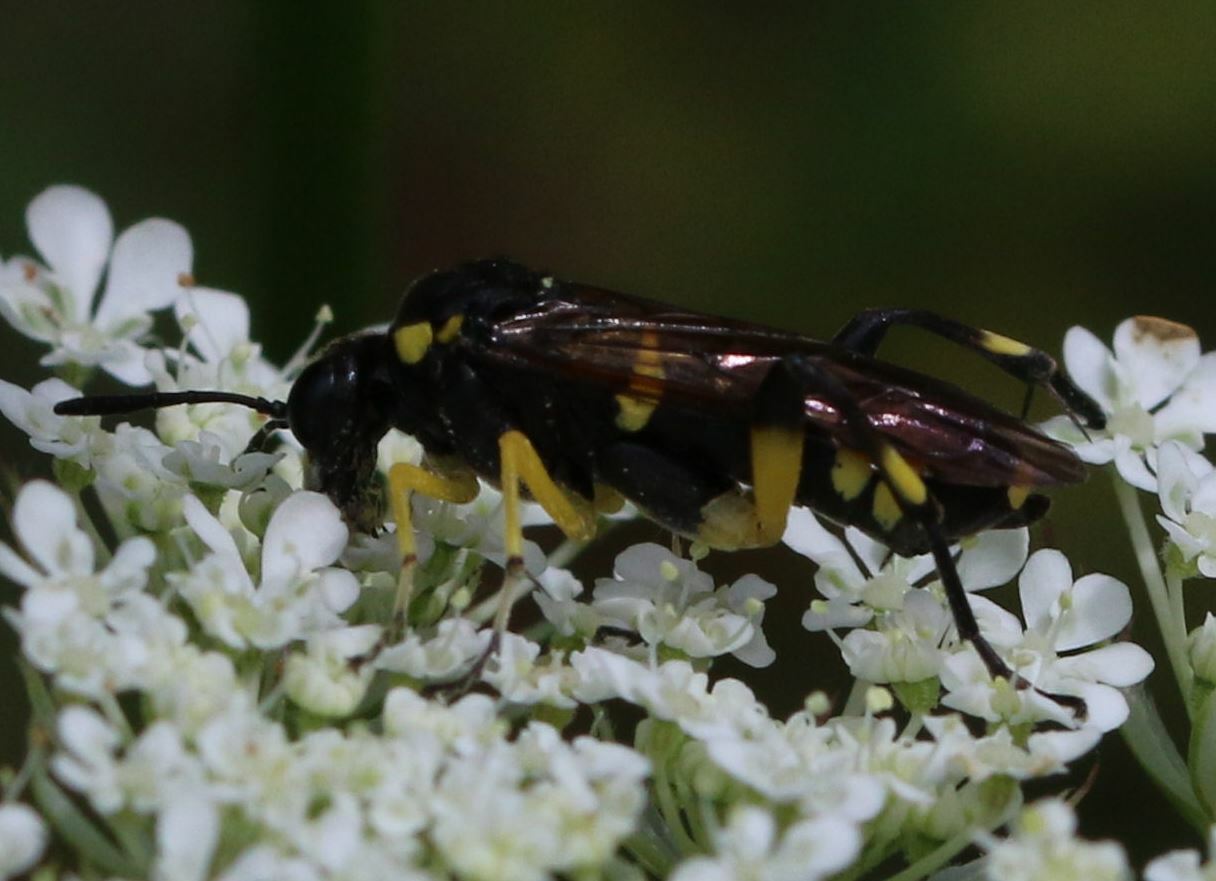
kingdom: Animalia
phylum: Arthropoda
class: Insecta
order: Hymenoptera
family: Tenthredinidae
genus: Macrophya
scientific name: Macrophya montana
